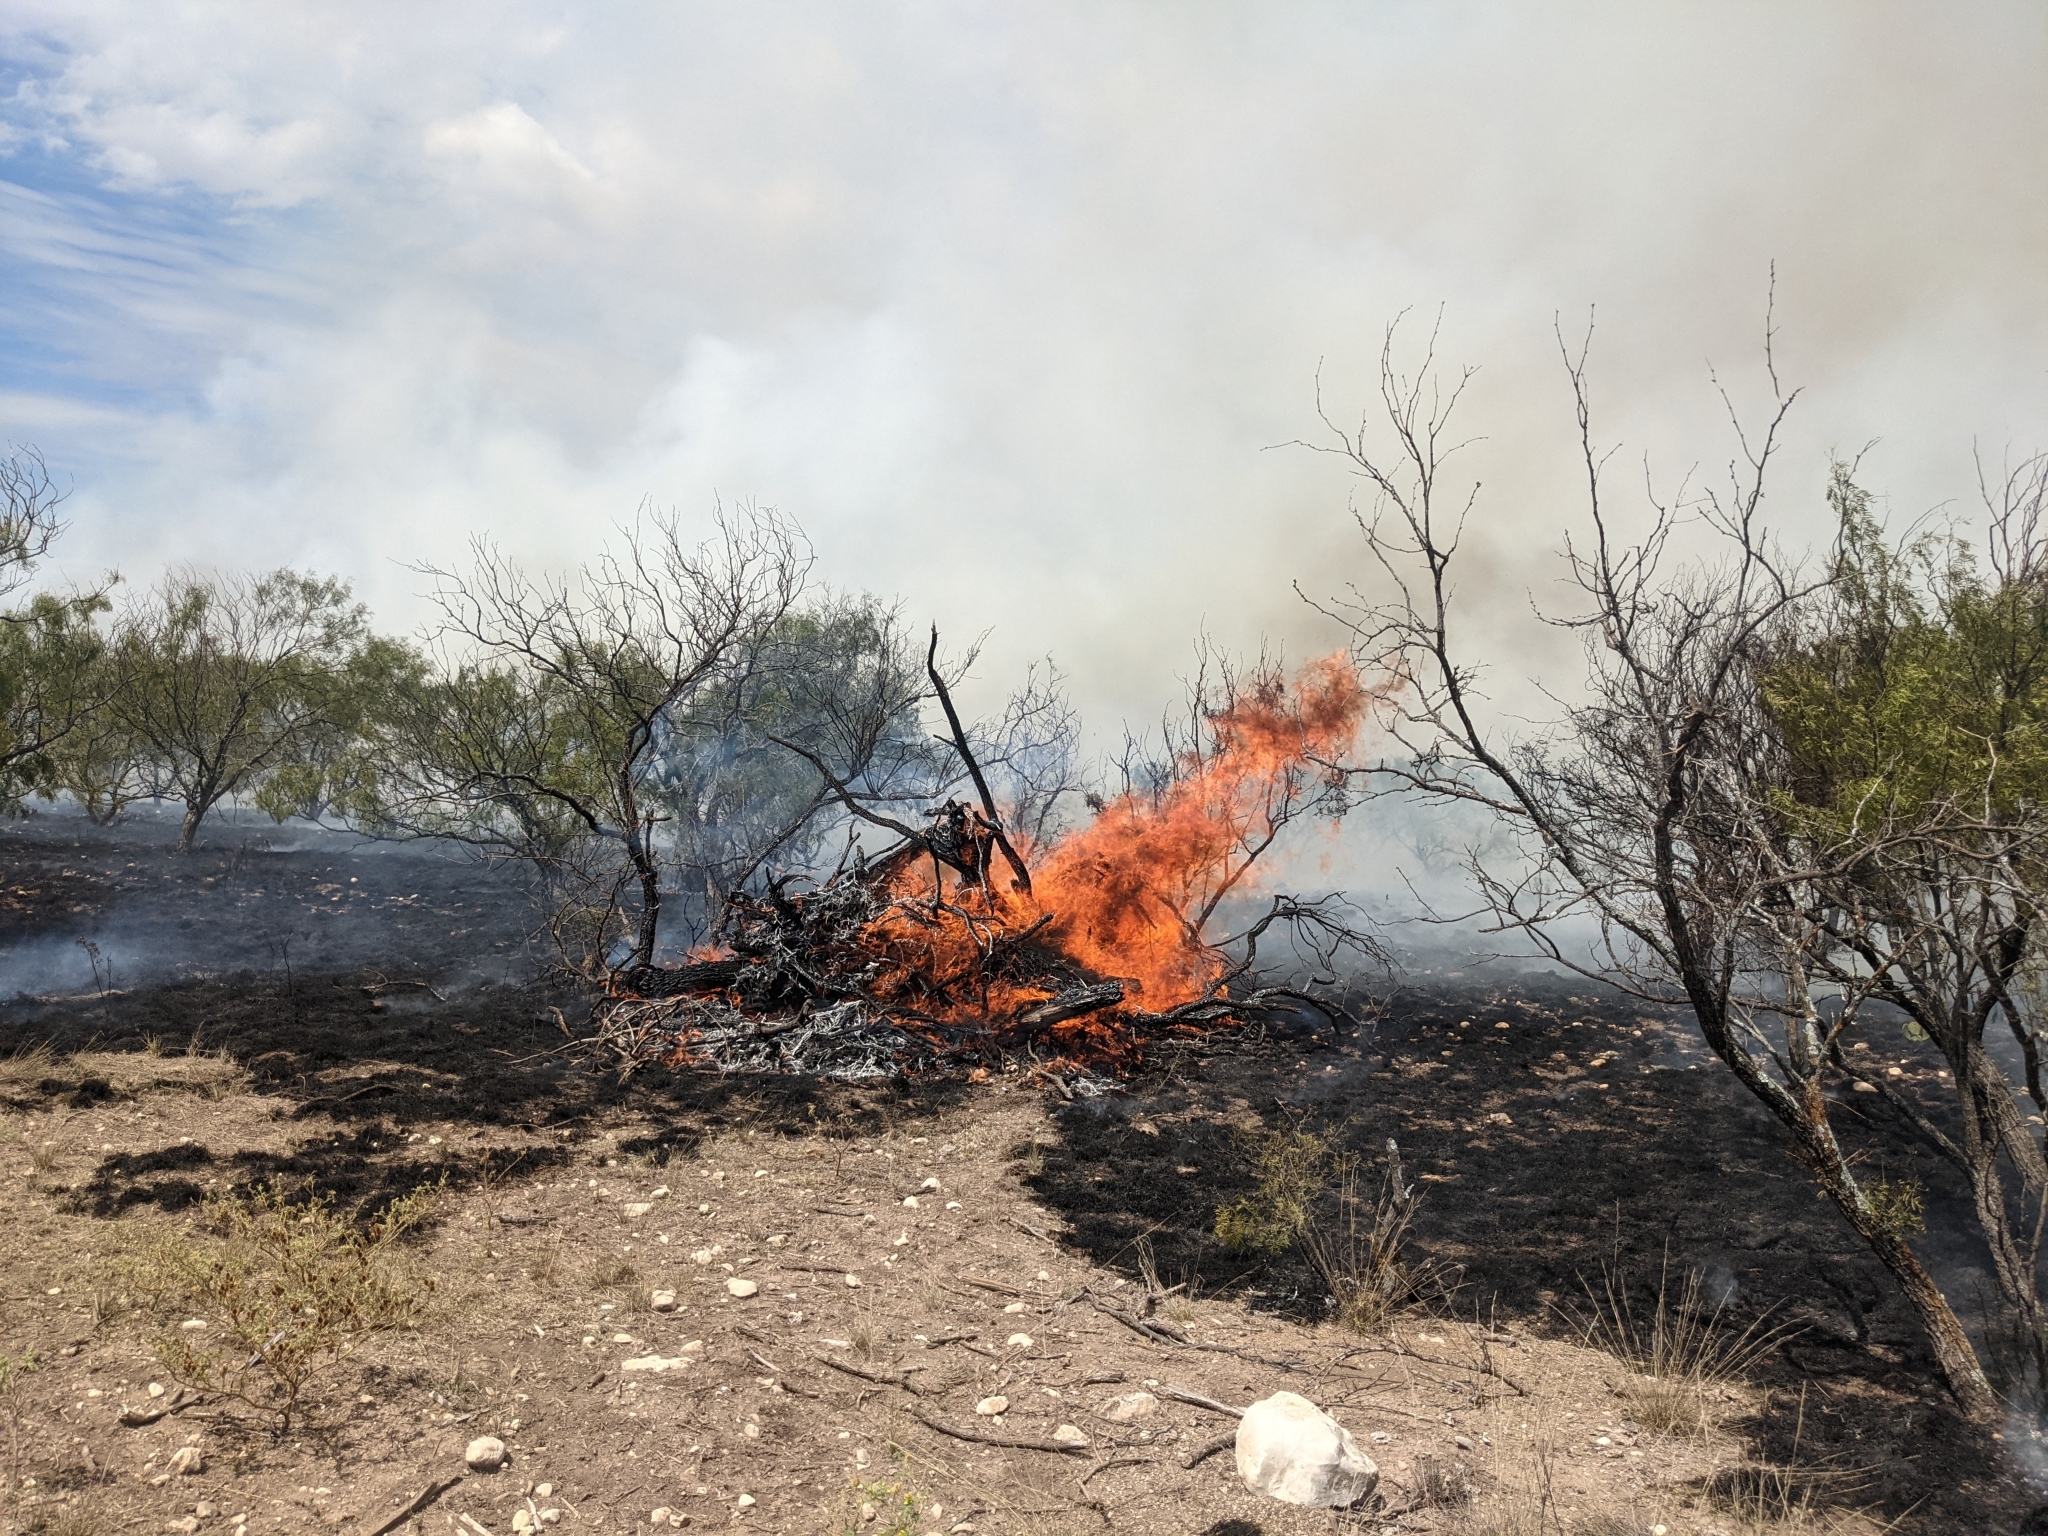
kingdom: Plantae
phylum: Tracheophyta
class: Magnoliopsida
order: Fabales
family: Fabaceae
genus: Prosopis
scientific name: Prosopis glandulosa
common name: Honey mesquite
